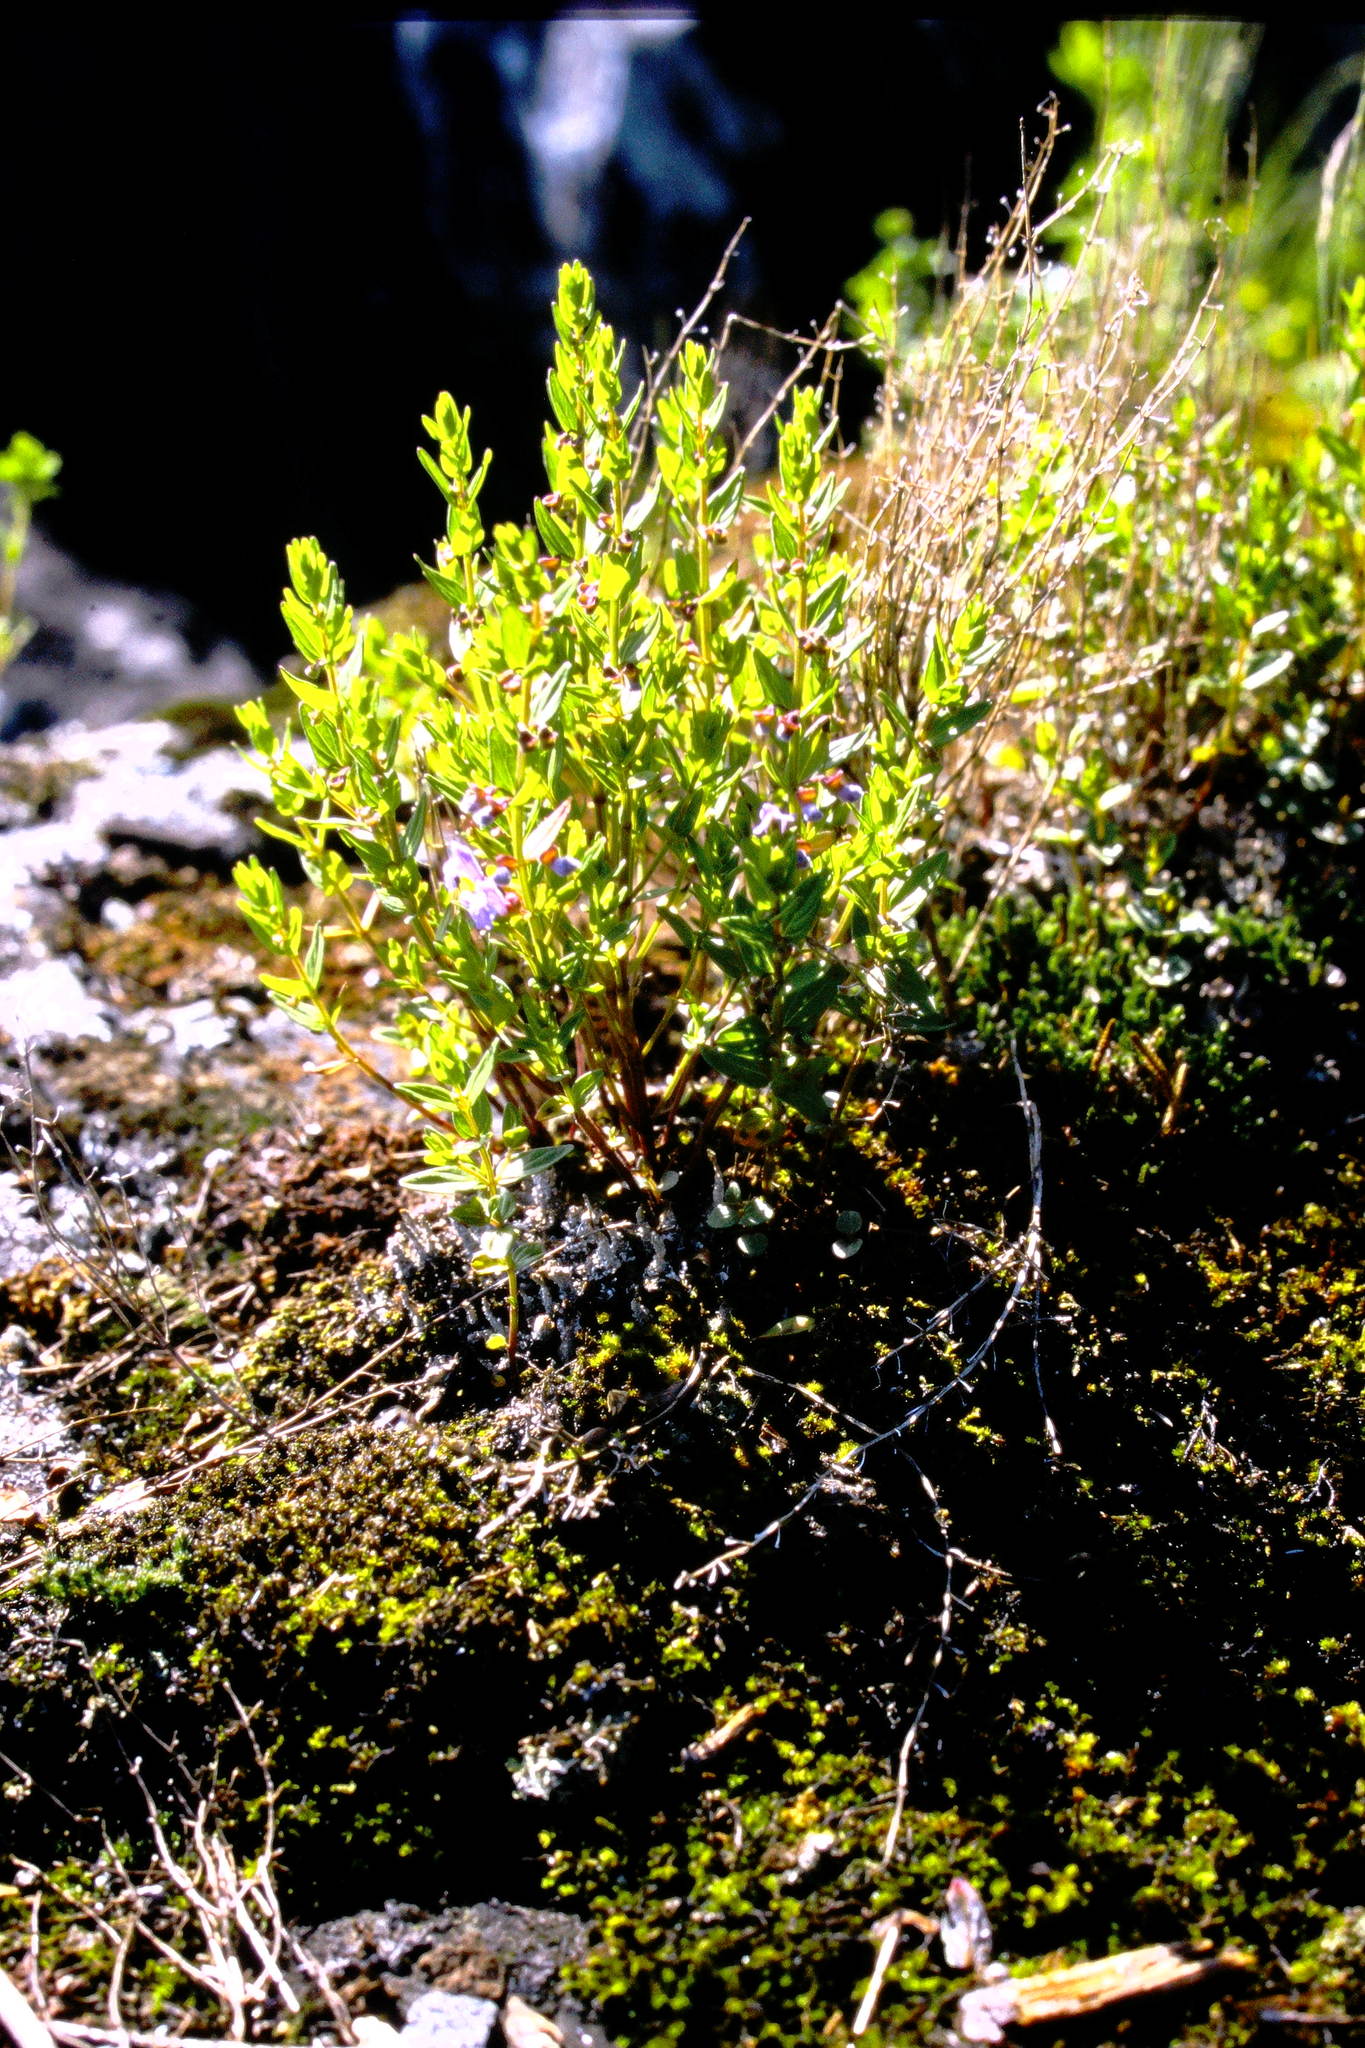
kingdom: Plantae
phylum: Tracheophyta
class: Magnoliopsida
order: Lamiales
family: Lamiaceae
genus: Scutellaria
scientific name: Scutellaria parvula
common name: Little scullcap
